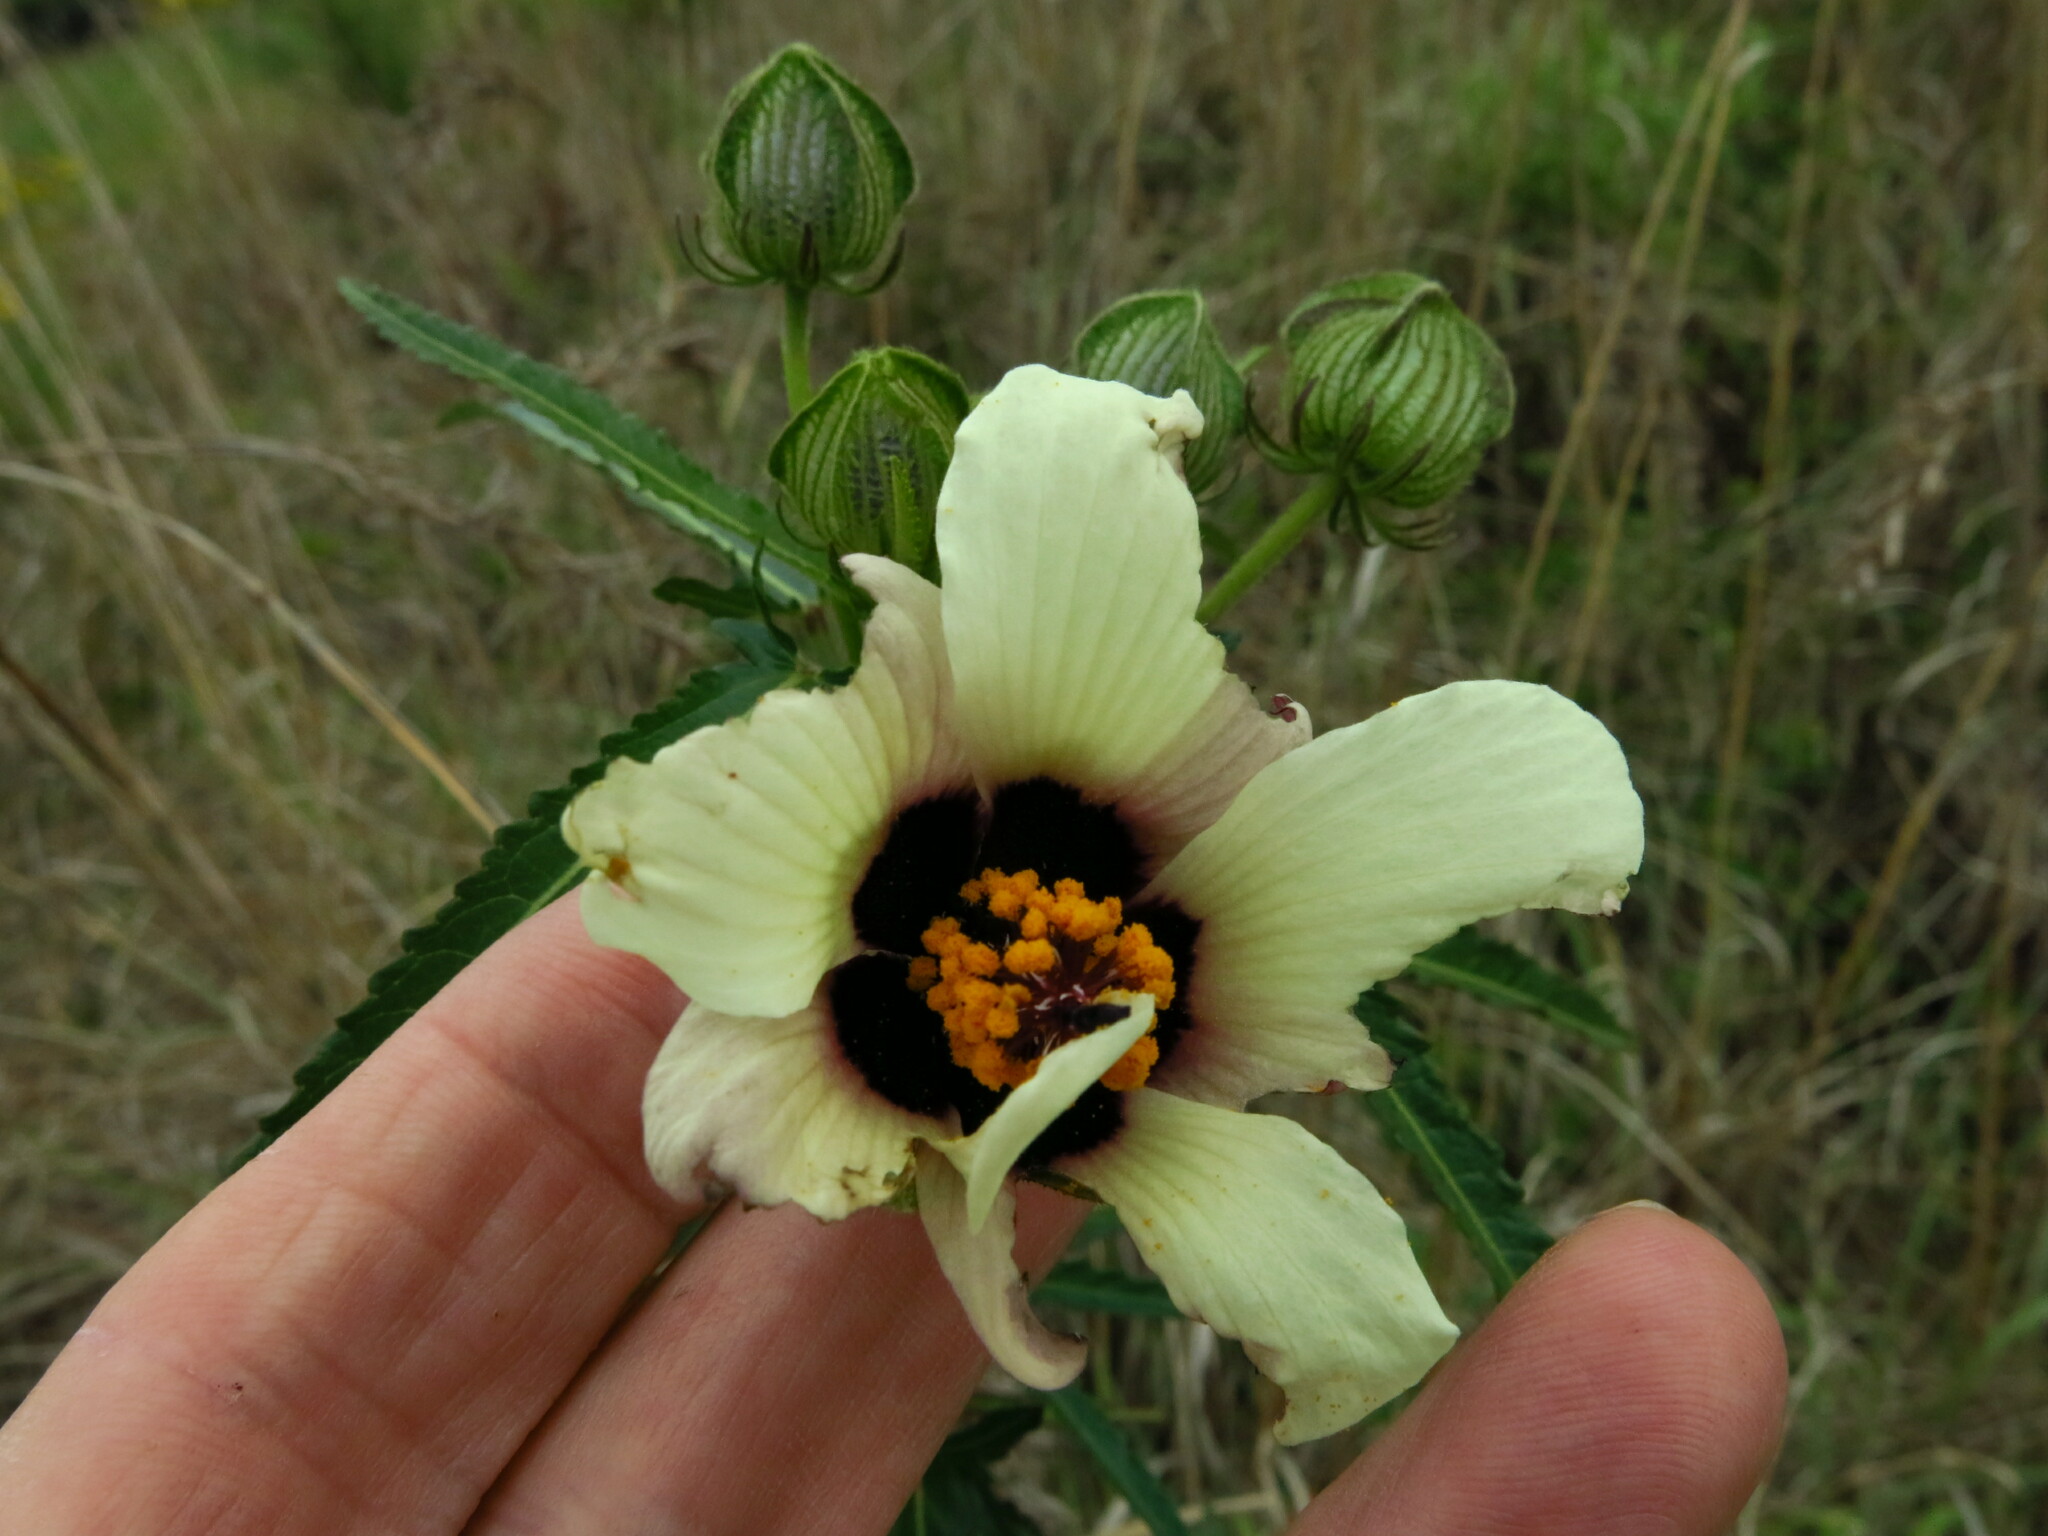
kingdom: Plantae
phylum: Tracheophyta
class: Magnoliopsida
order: Malvales
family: Malvaceae
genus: Hibiscus
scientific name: Hibiscus trionum
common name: Bladder ketmia
